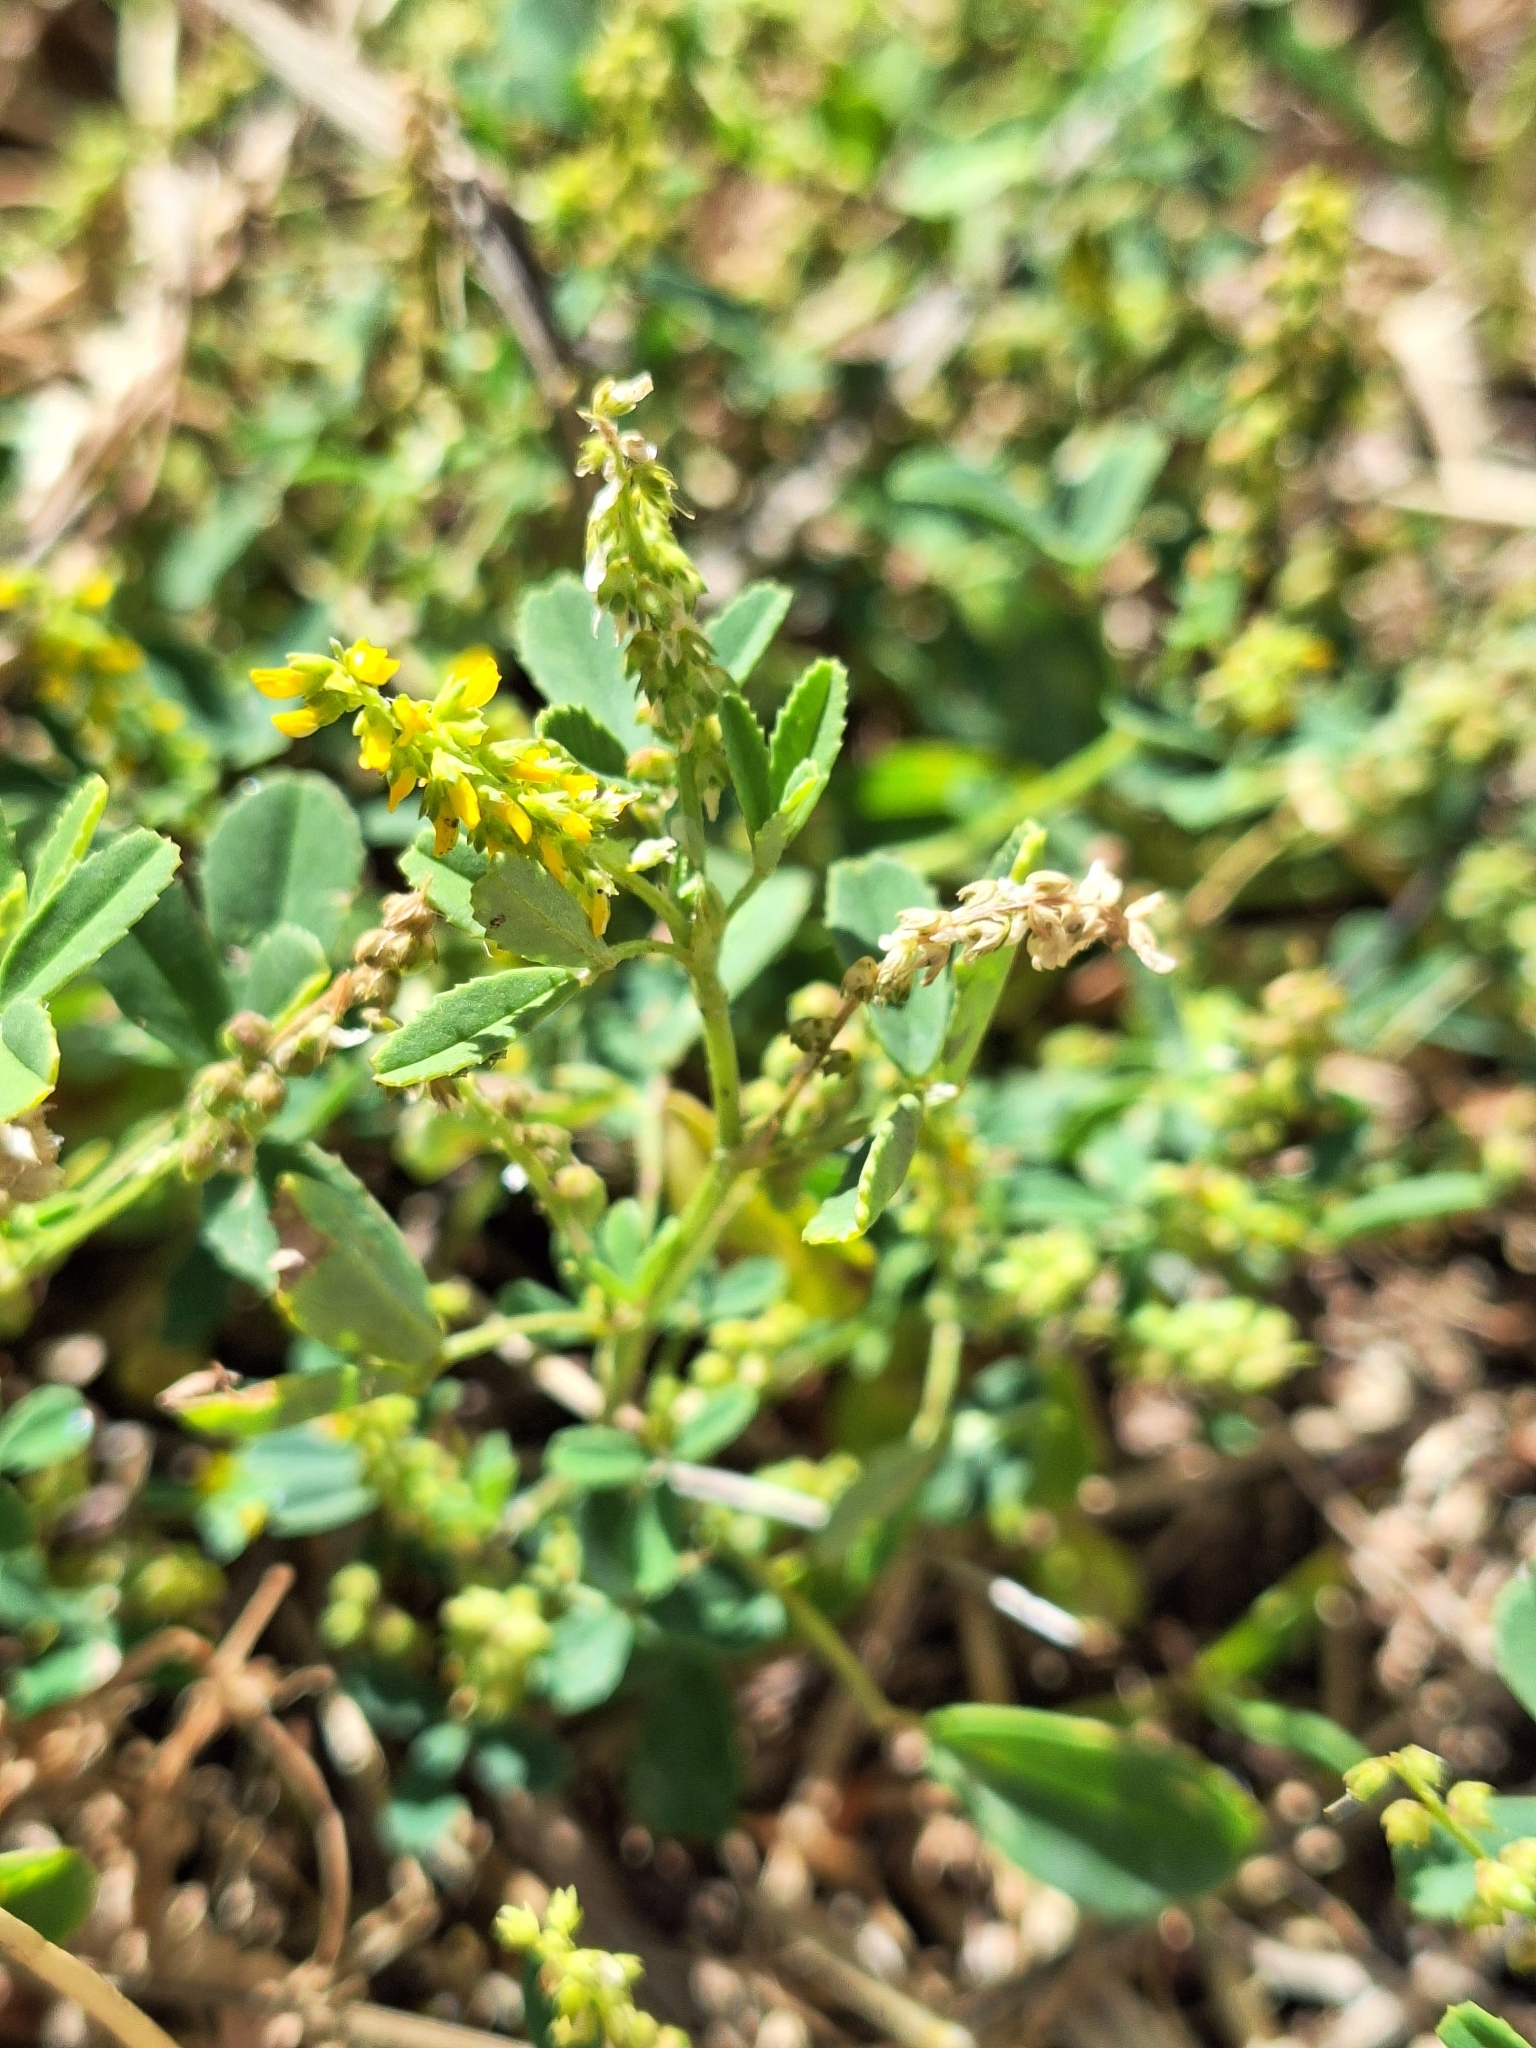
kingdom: Plantae
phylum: Tracheophyta
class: Magnoliopsida
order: Fabales
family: Fabaceae
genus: Melilotus
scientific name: Melilotus officinalis
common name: Sweetclover
